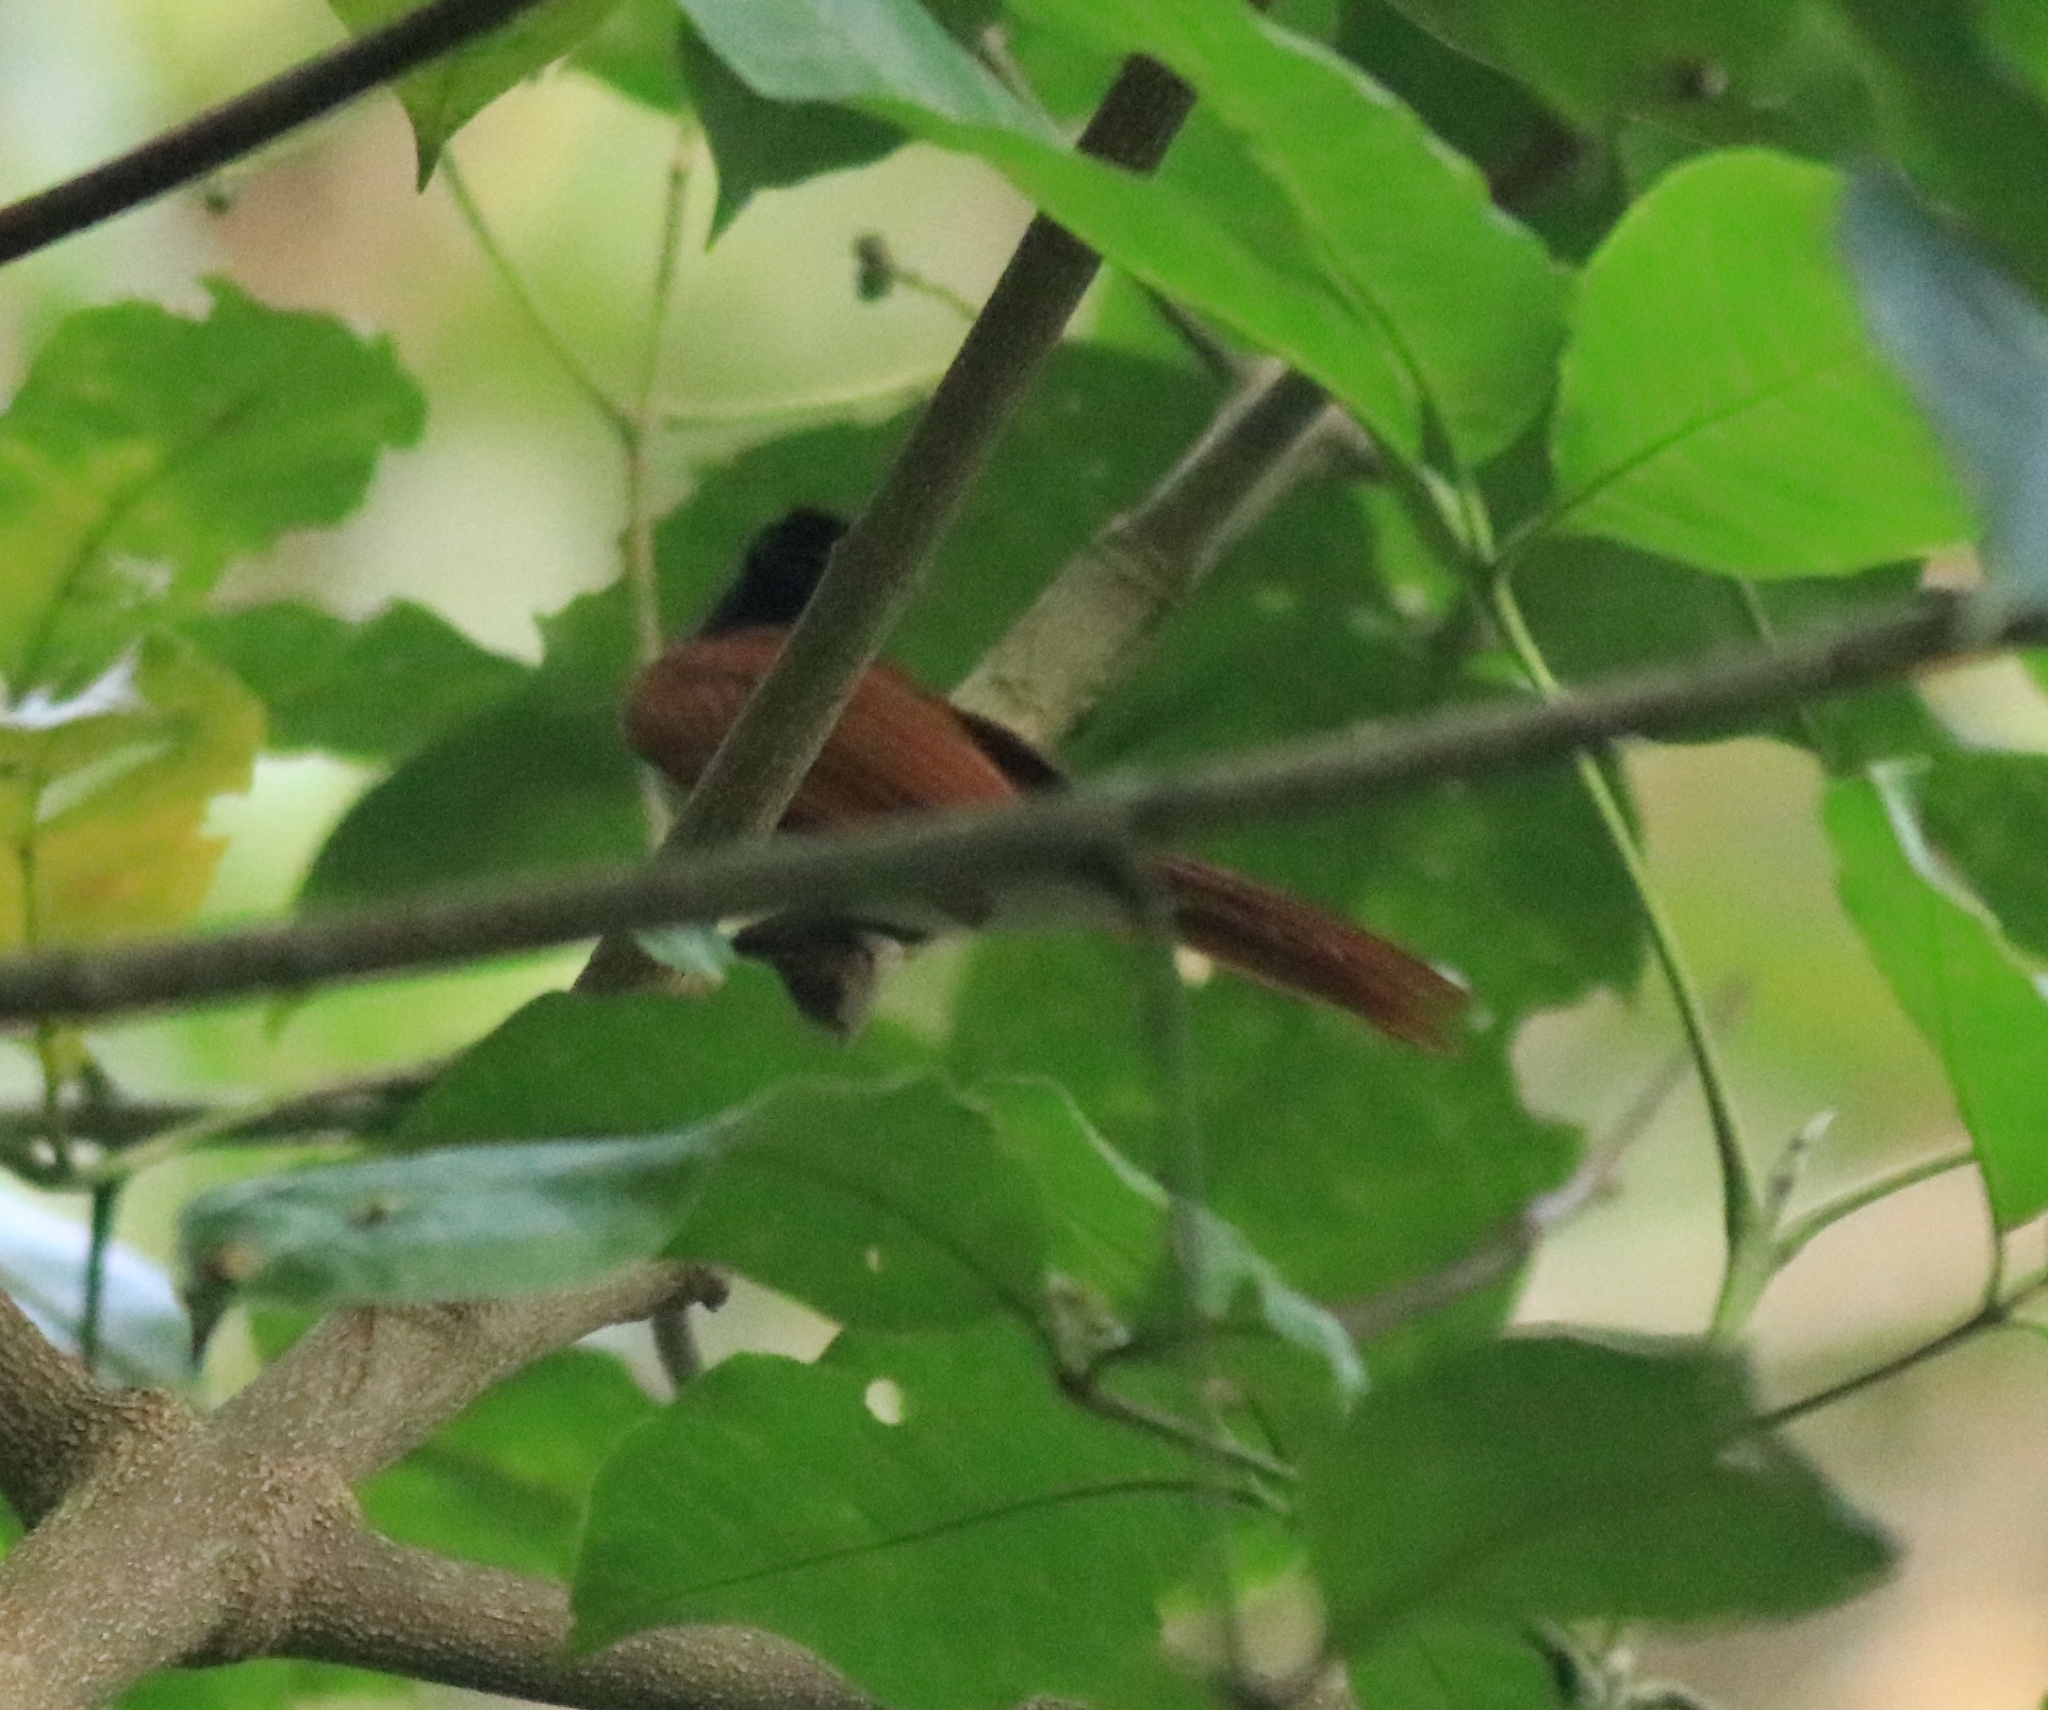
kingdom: Animalia
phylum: Chordata
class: Aves
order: Passeriformes
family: Monarchidae
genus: Terpsiphone
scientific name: Terpsiphone paradisi
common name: Indian paradise flycatcher
